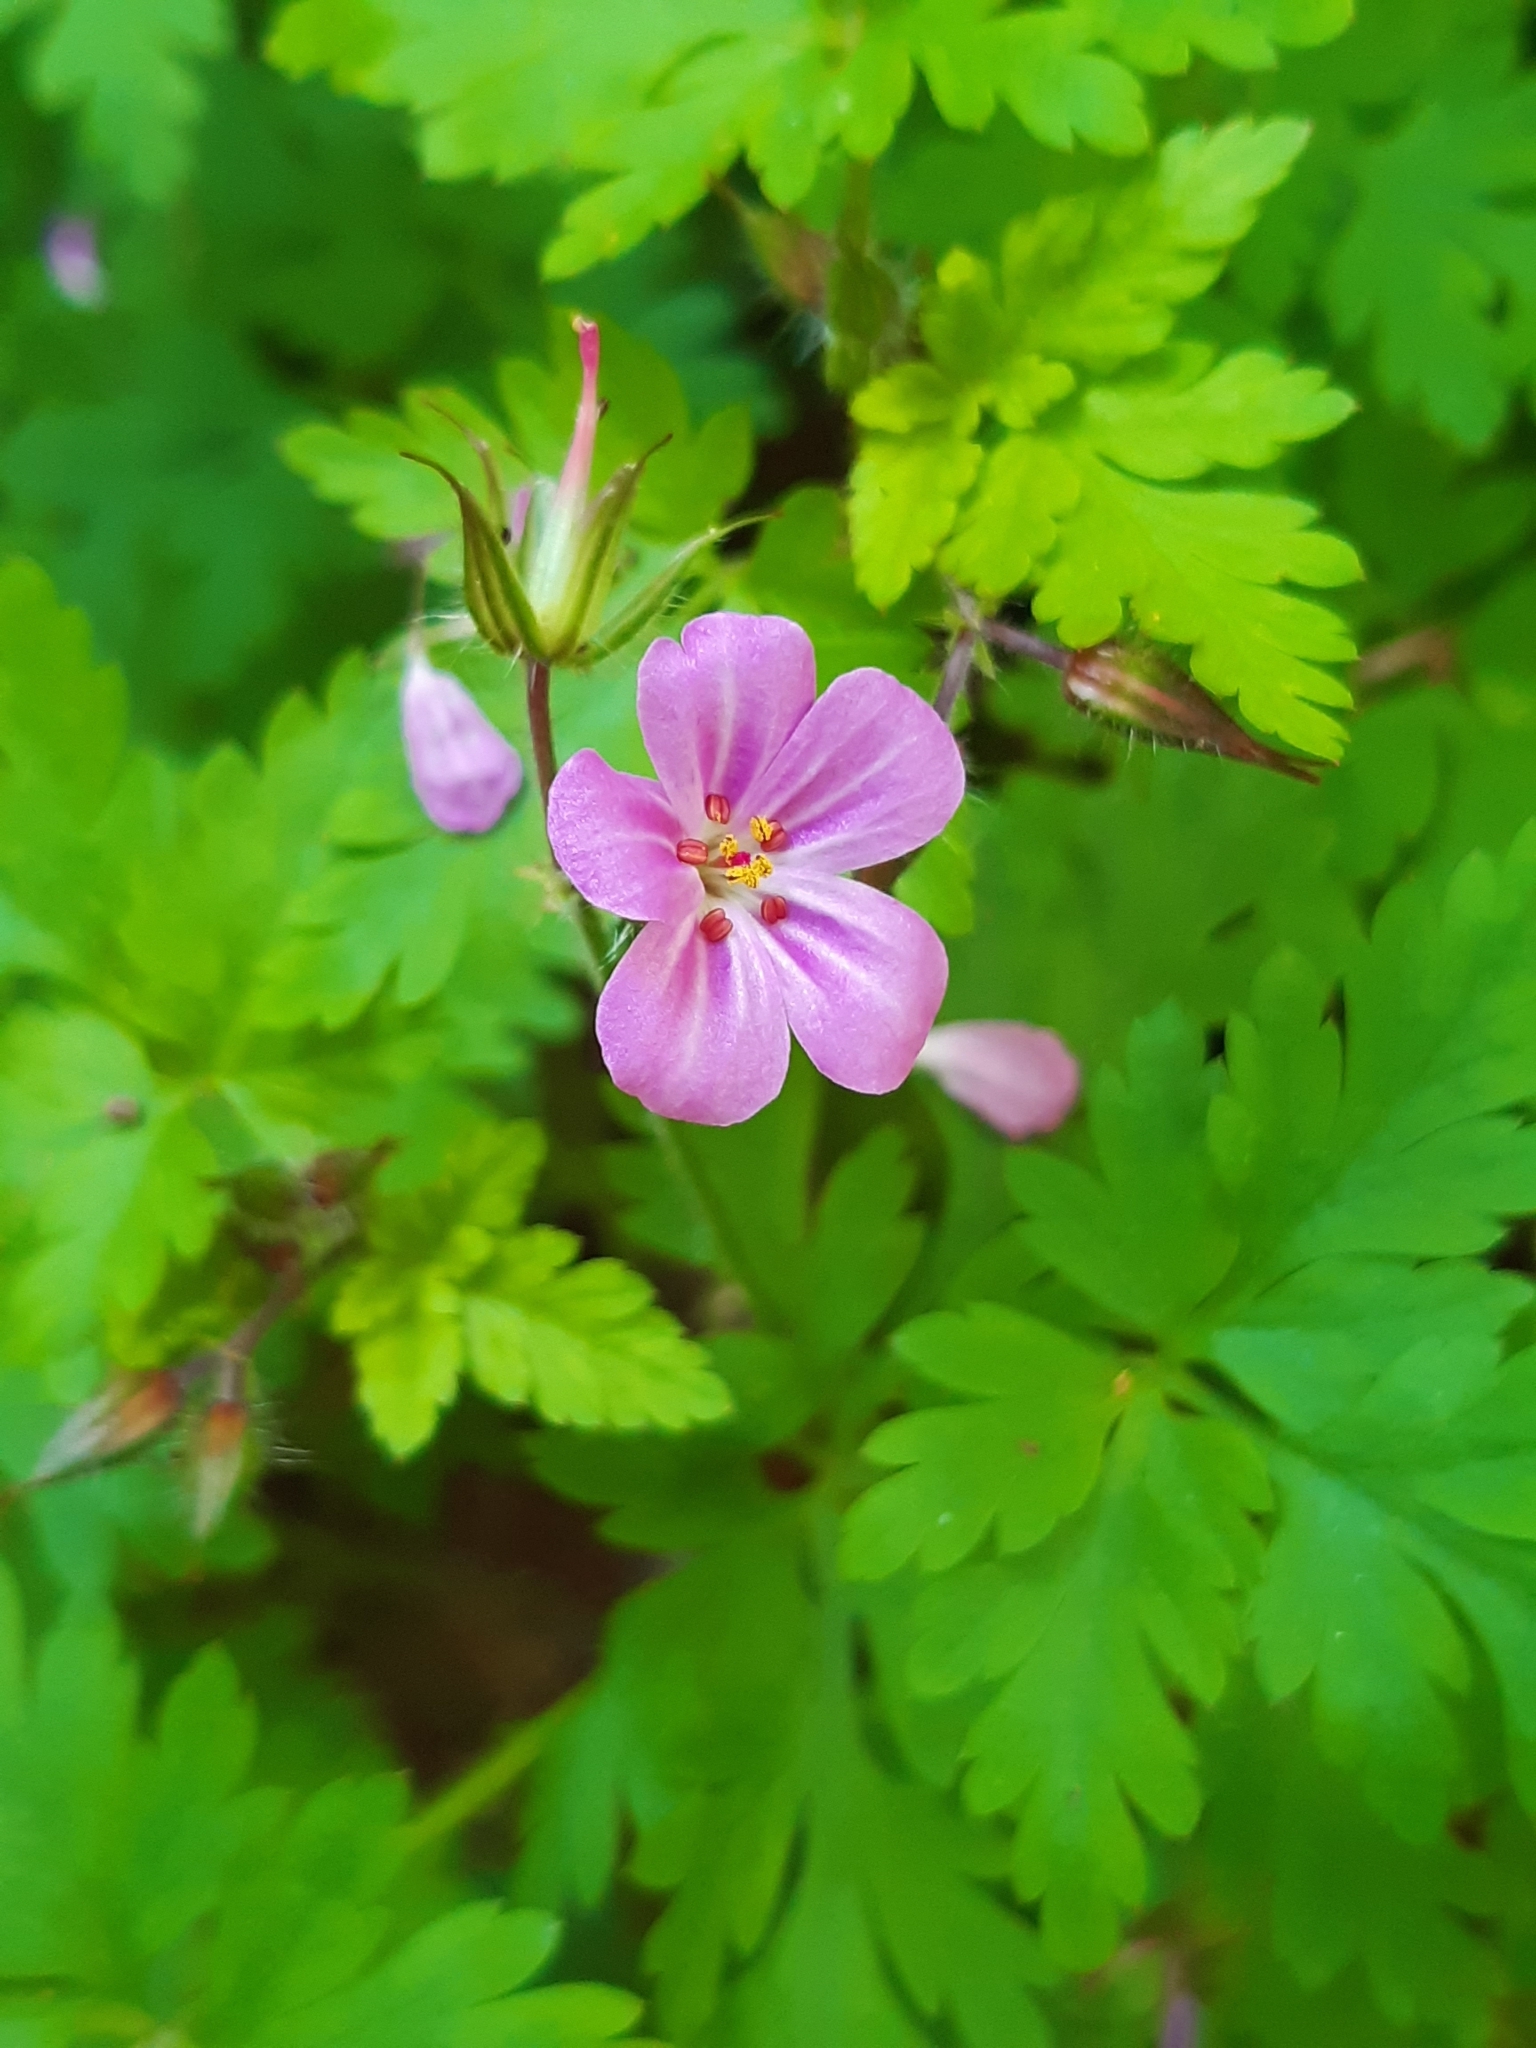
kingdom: Plantae
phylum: Tracheophyta
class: Magnoliopsida
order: Geraniales
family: Geraniaceae
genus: Geranium
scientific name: Geranium robertianum
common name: Herb-robert
